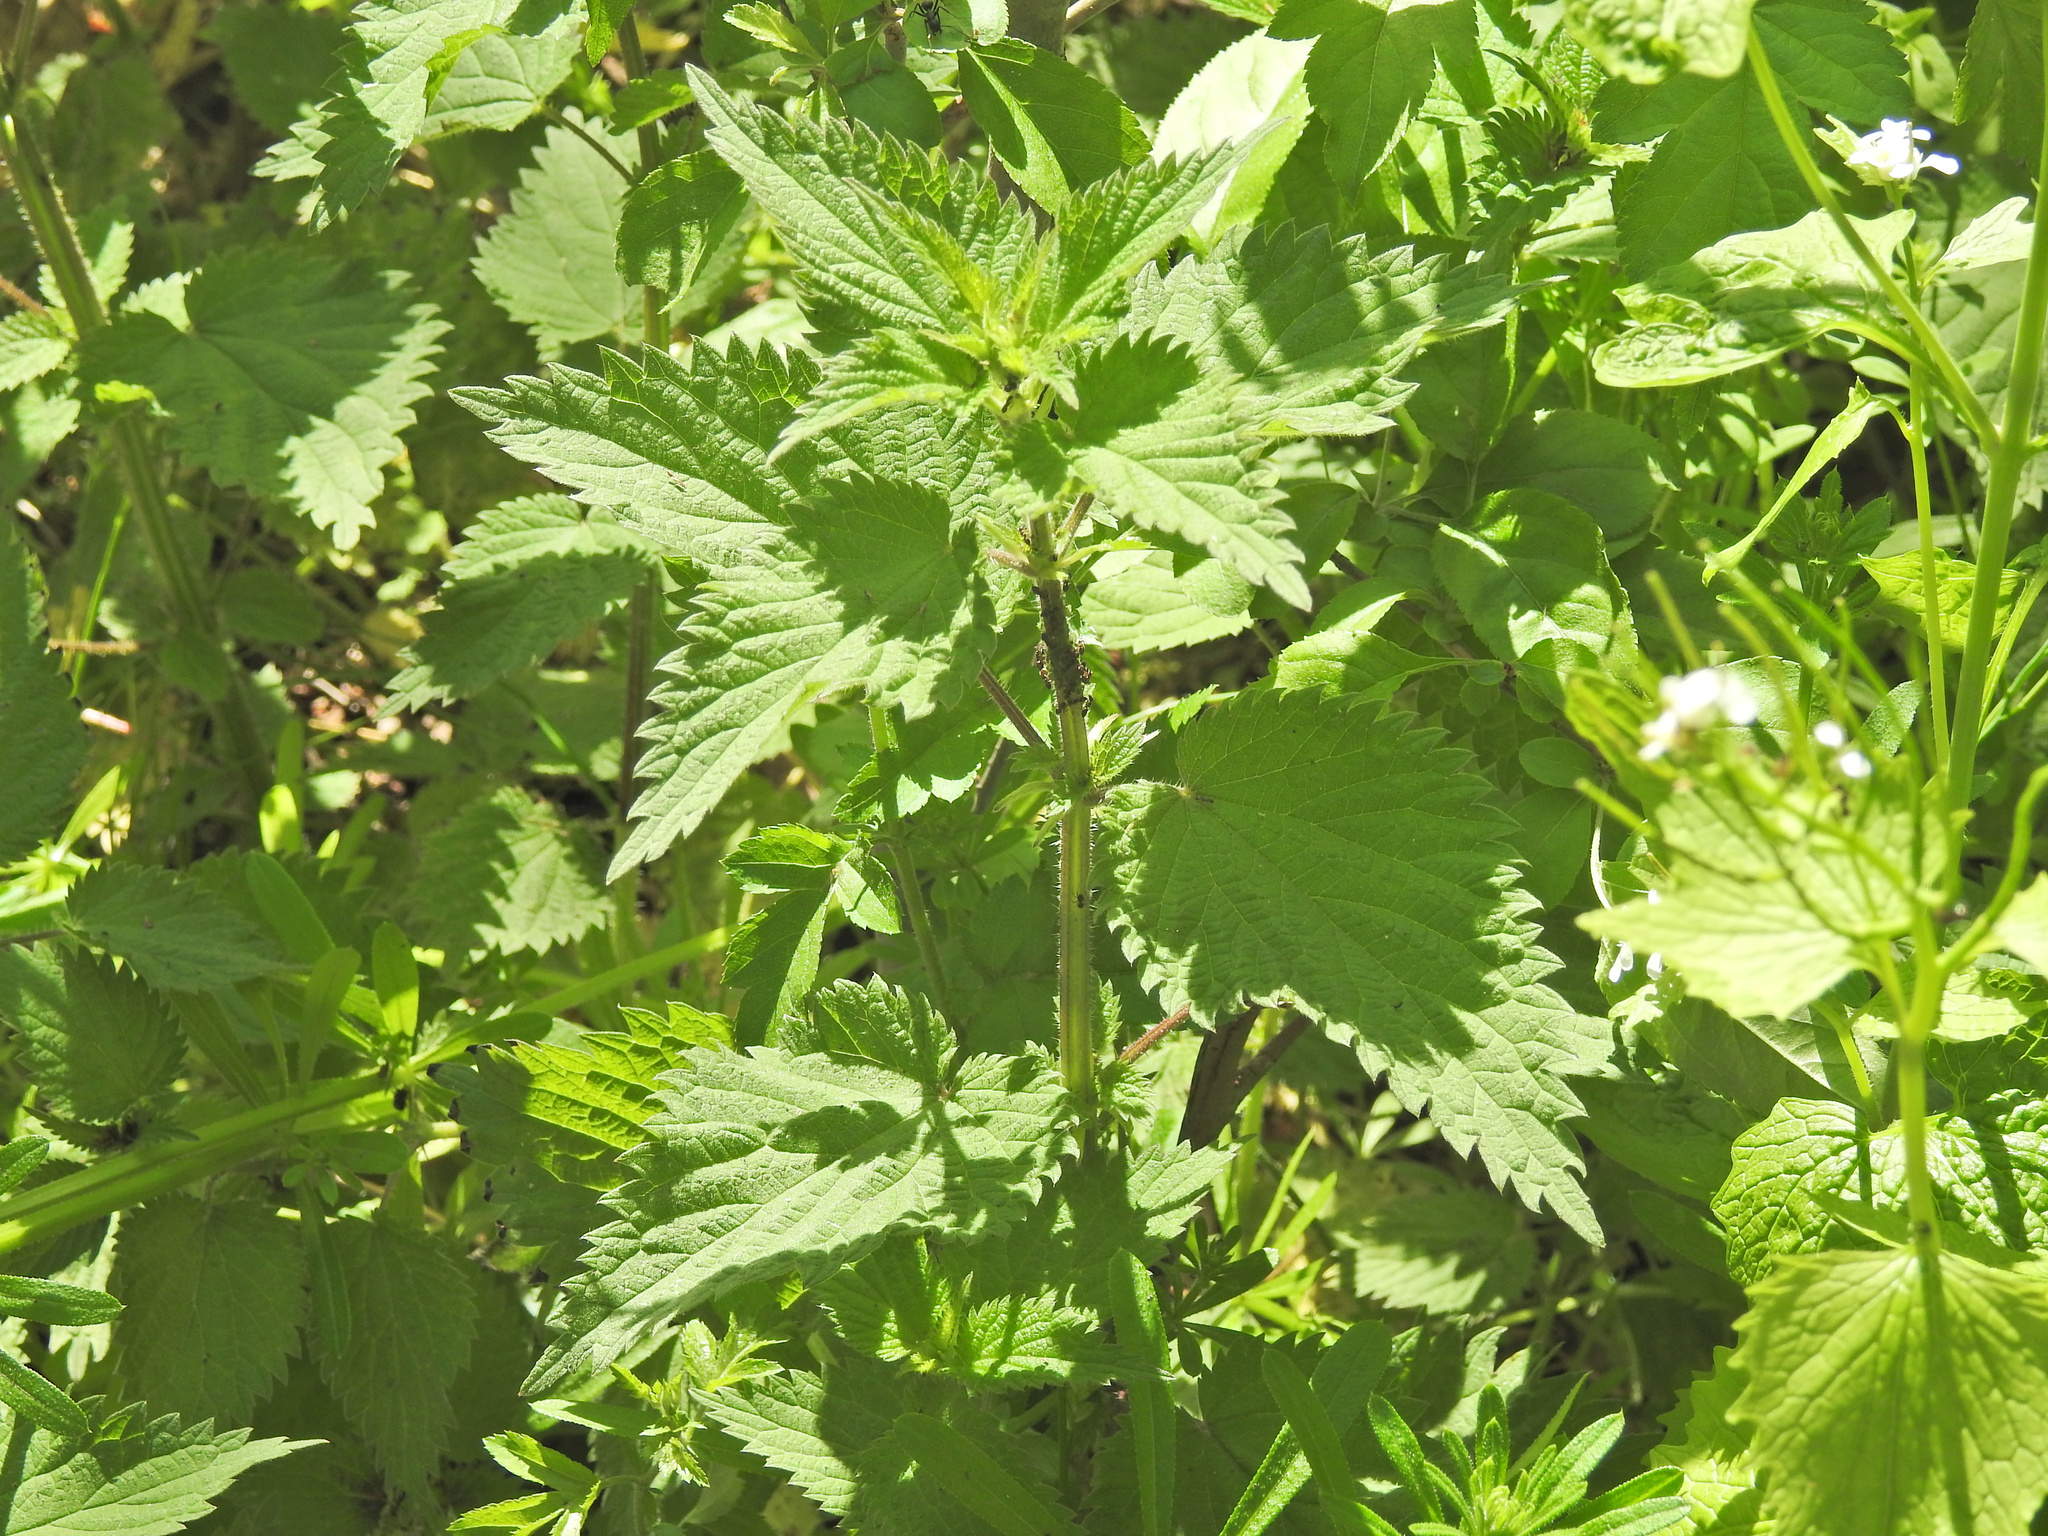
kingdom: Plantae
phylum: Tracheophyta
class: Magnoliopsida
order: Rosales
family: Urticaceae
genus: Urtica
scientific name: Urtica dioica
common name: Common nettle
